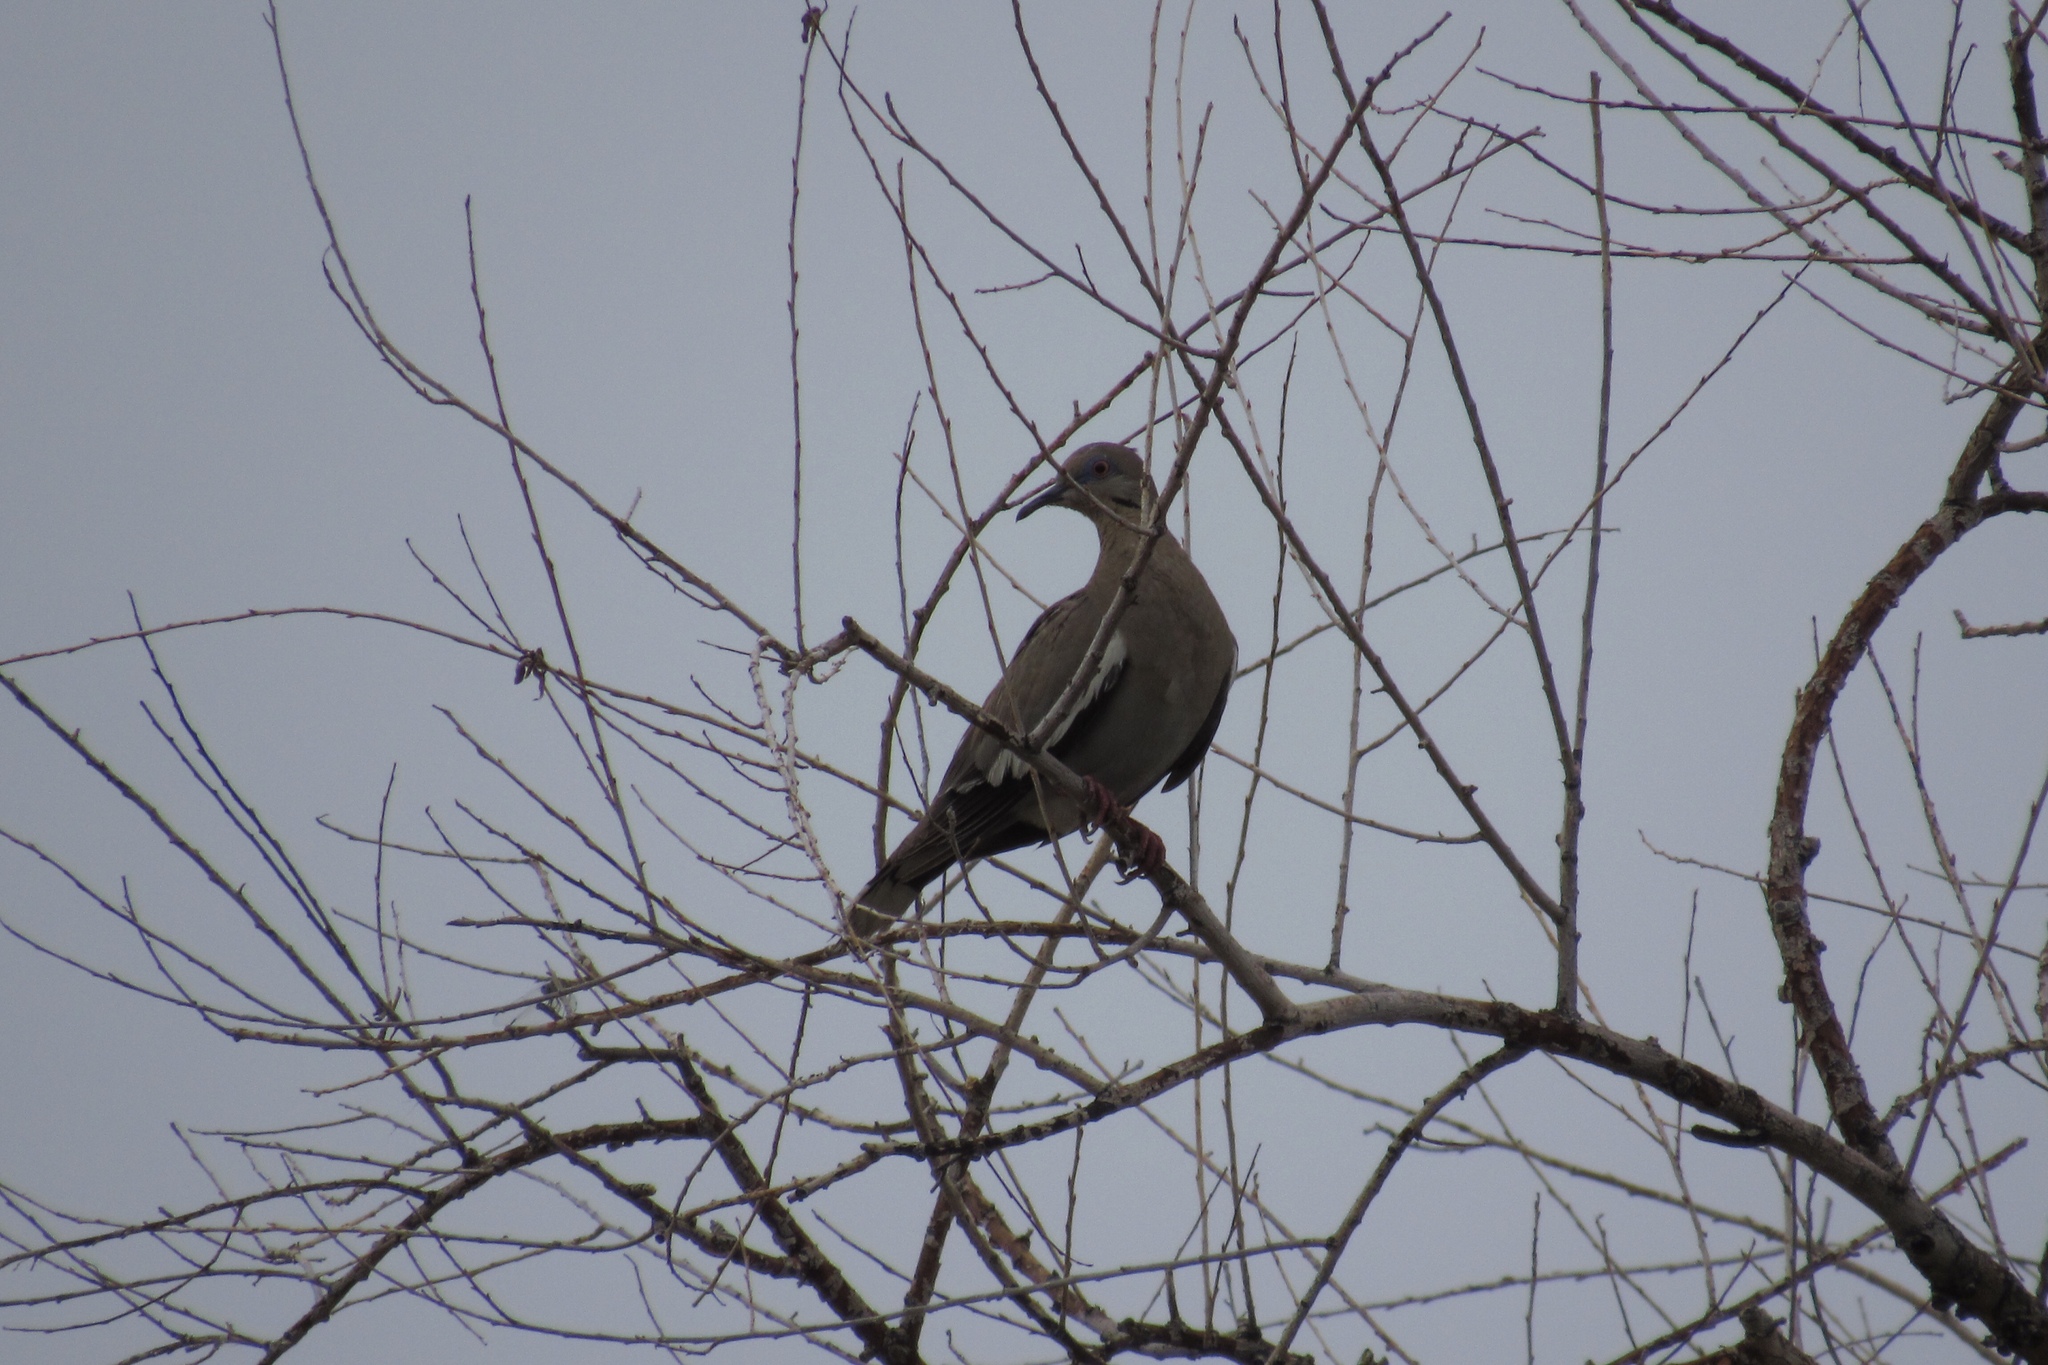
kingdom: Animalia
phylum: Chordata
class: Aves
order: Columbiformes
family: Columbidae
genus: Zenaida
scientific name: Zenaida asiatica
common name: White-winged dove
